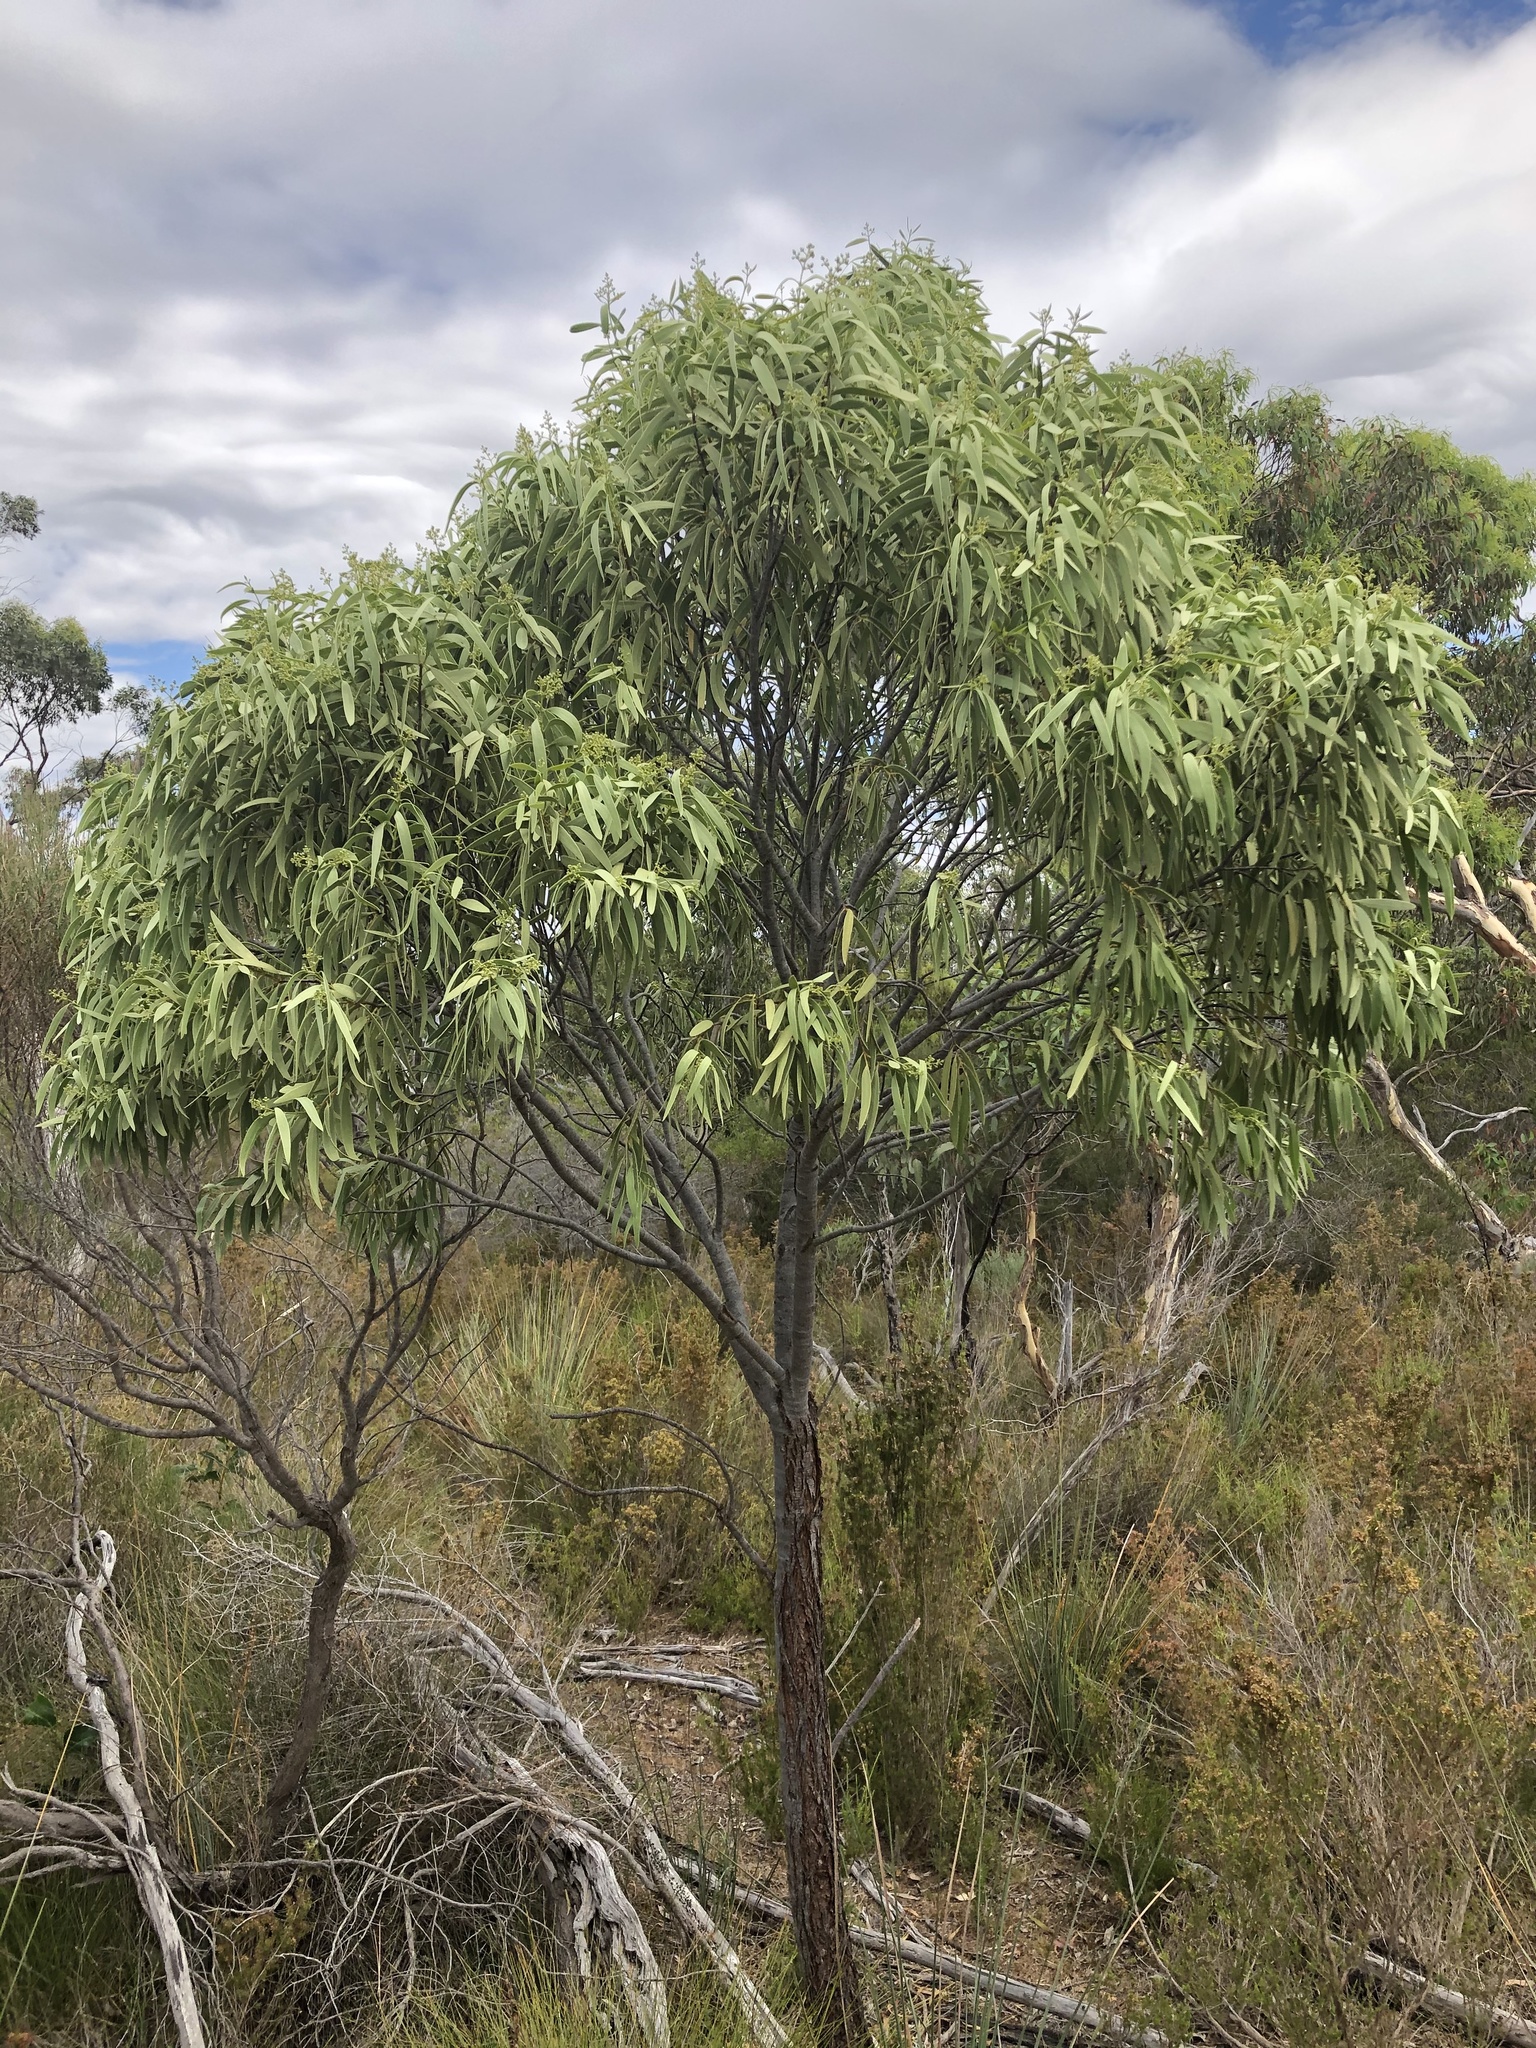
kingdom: Plantae
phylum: Tracheophyta
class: Magnoliopsida
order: Santalales
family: Santalaceae
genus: Santalum
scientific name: Santalum acuminatum
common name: Sweet quandong
